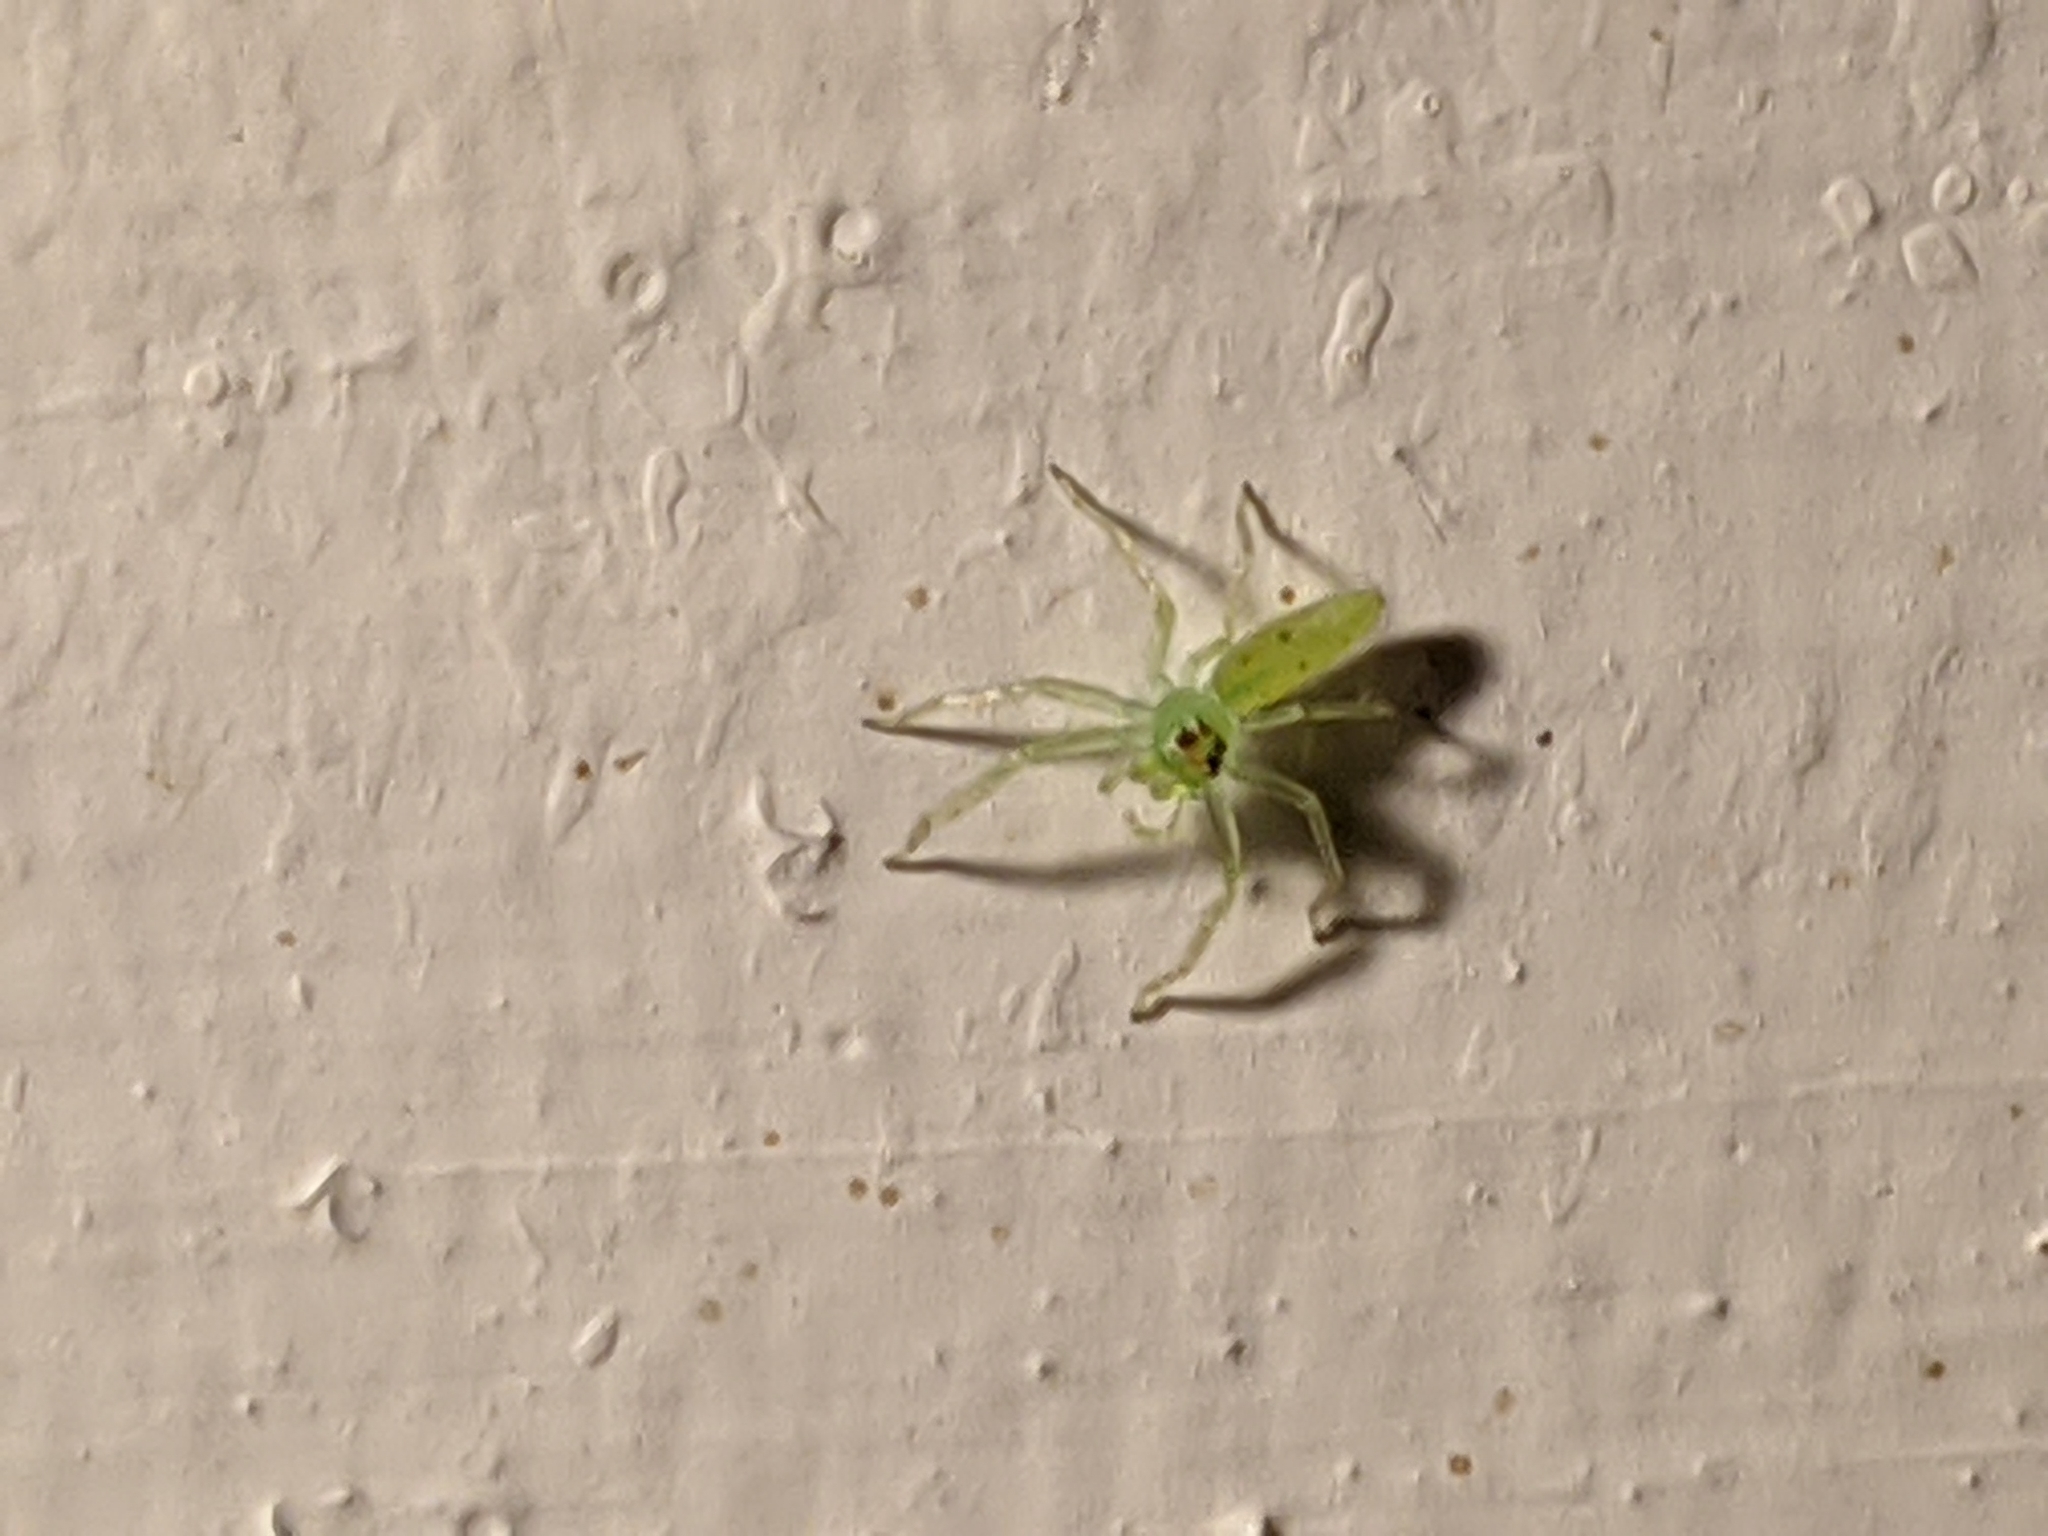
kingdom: Animalia
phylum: Arthropoda
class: Arachnida
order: Araneae
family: Salticidae
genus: Lyssomanes
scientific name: Lyssomanes viridis
